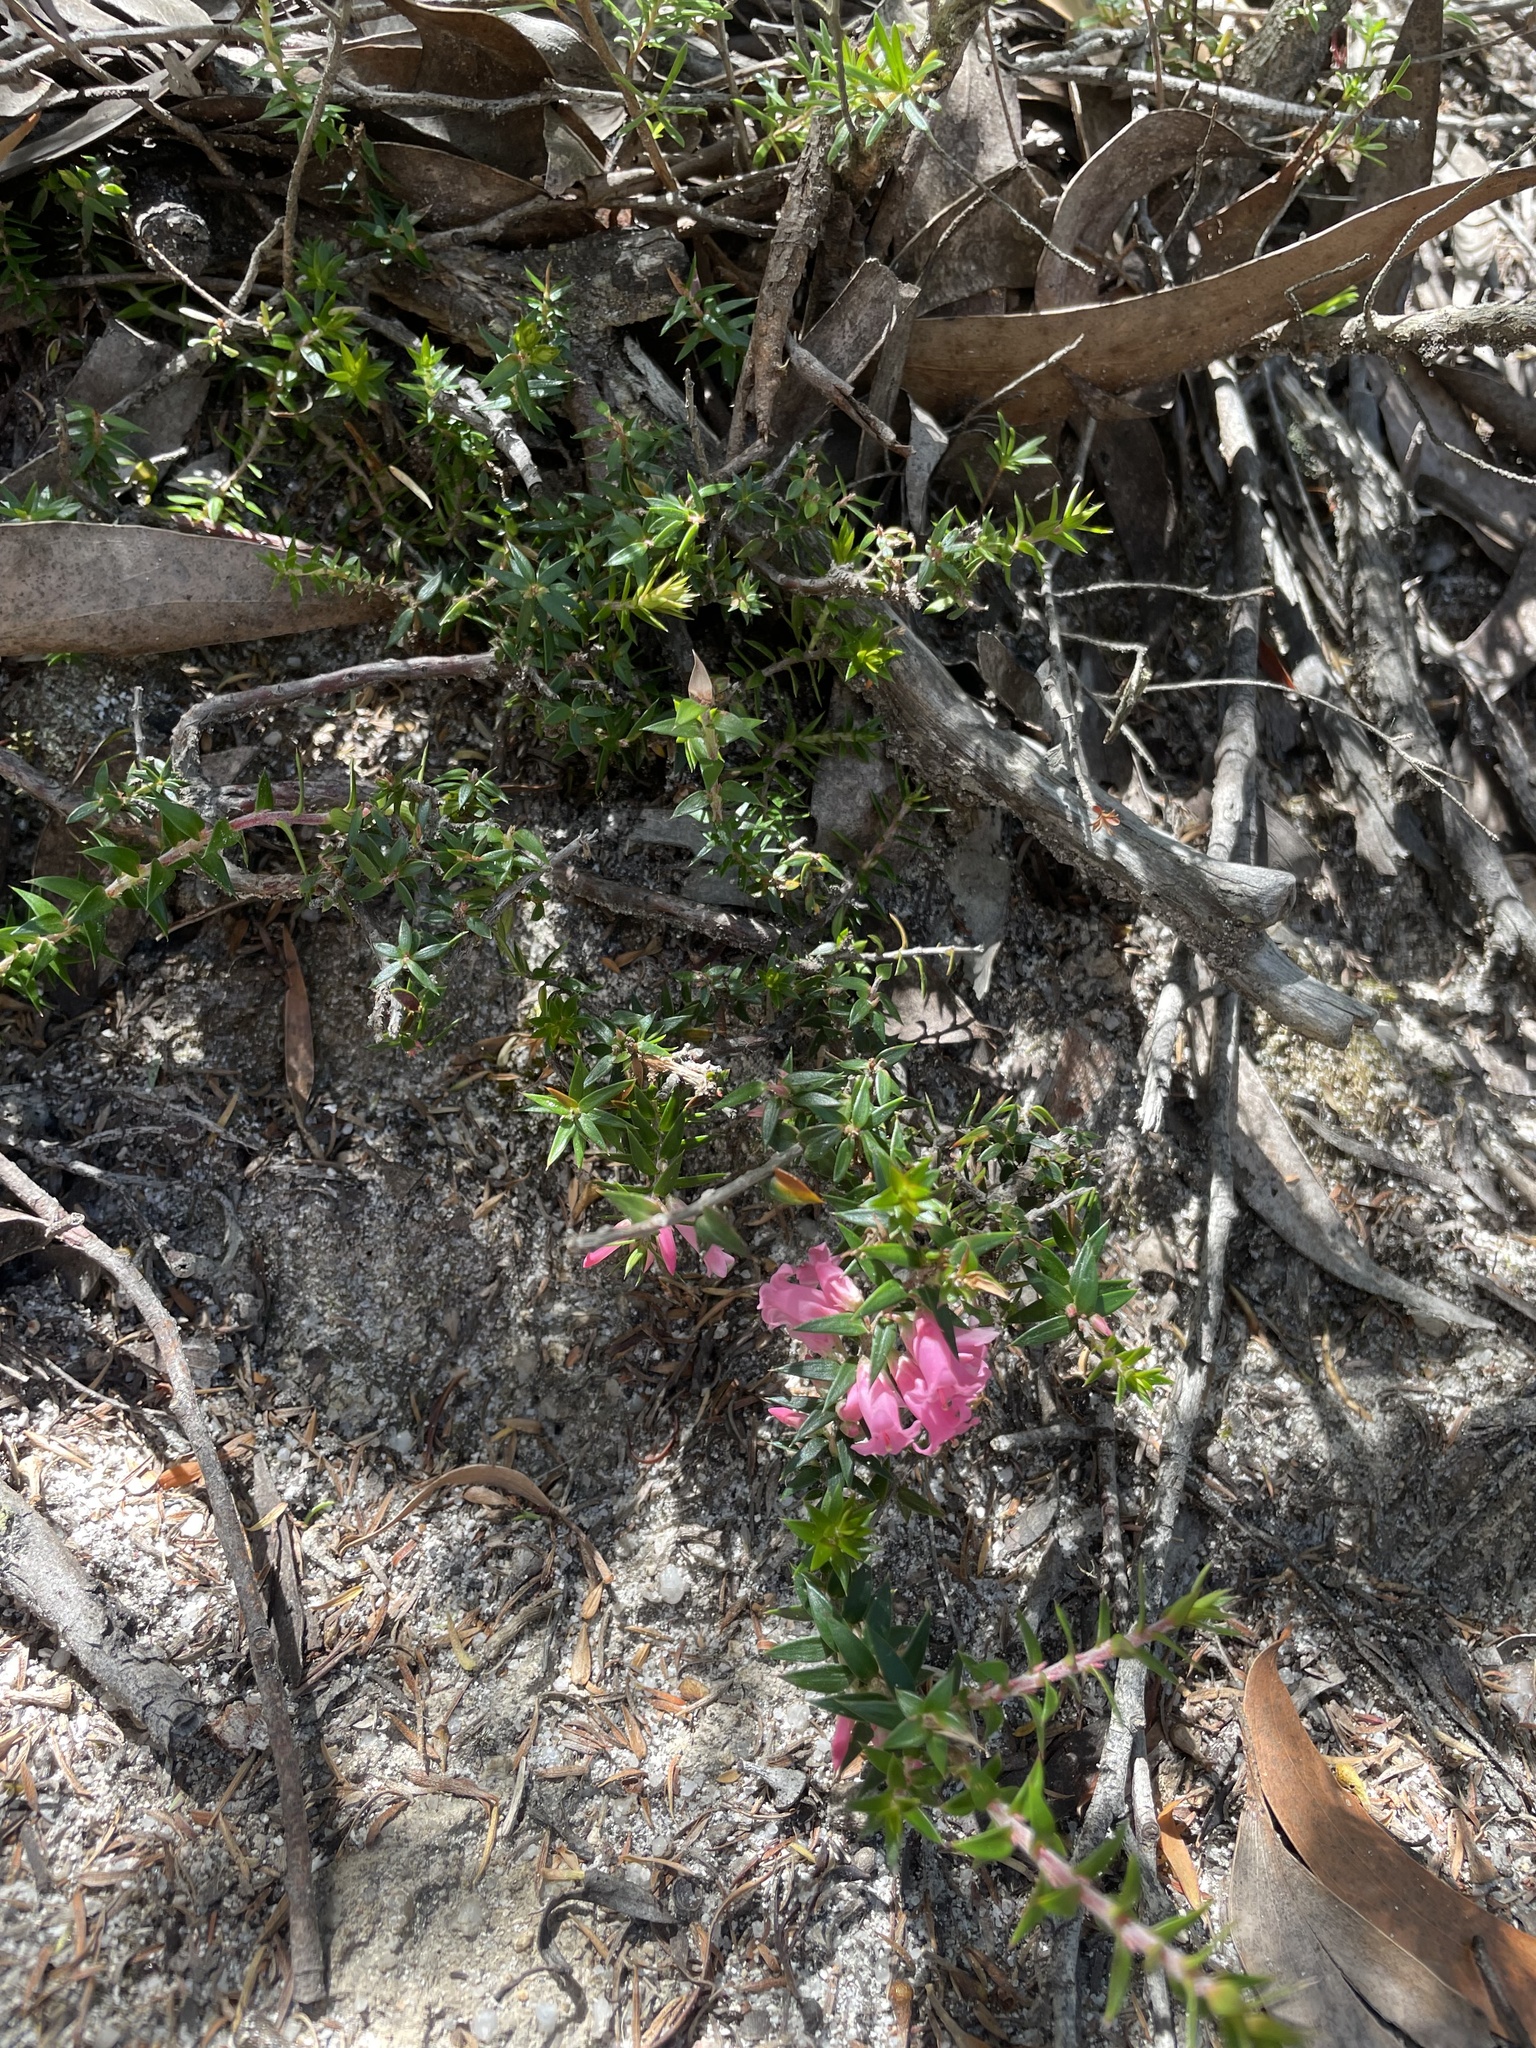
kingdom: Plantae
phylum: Tracheophyta
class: Magnoliopsida
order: Ericales
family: Ericaceae
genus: Epacris
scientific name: Epacris impressa
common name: Common-heath
